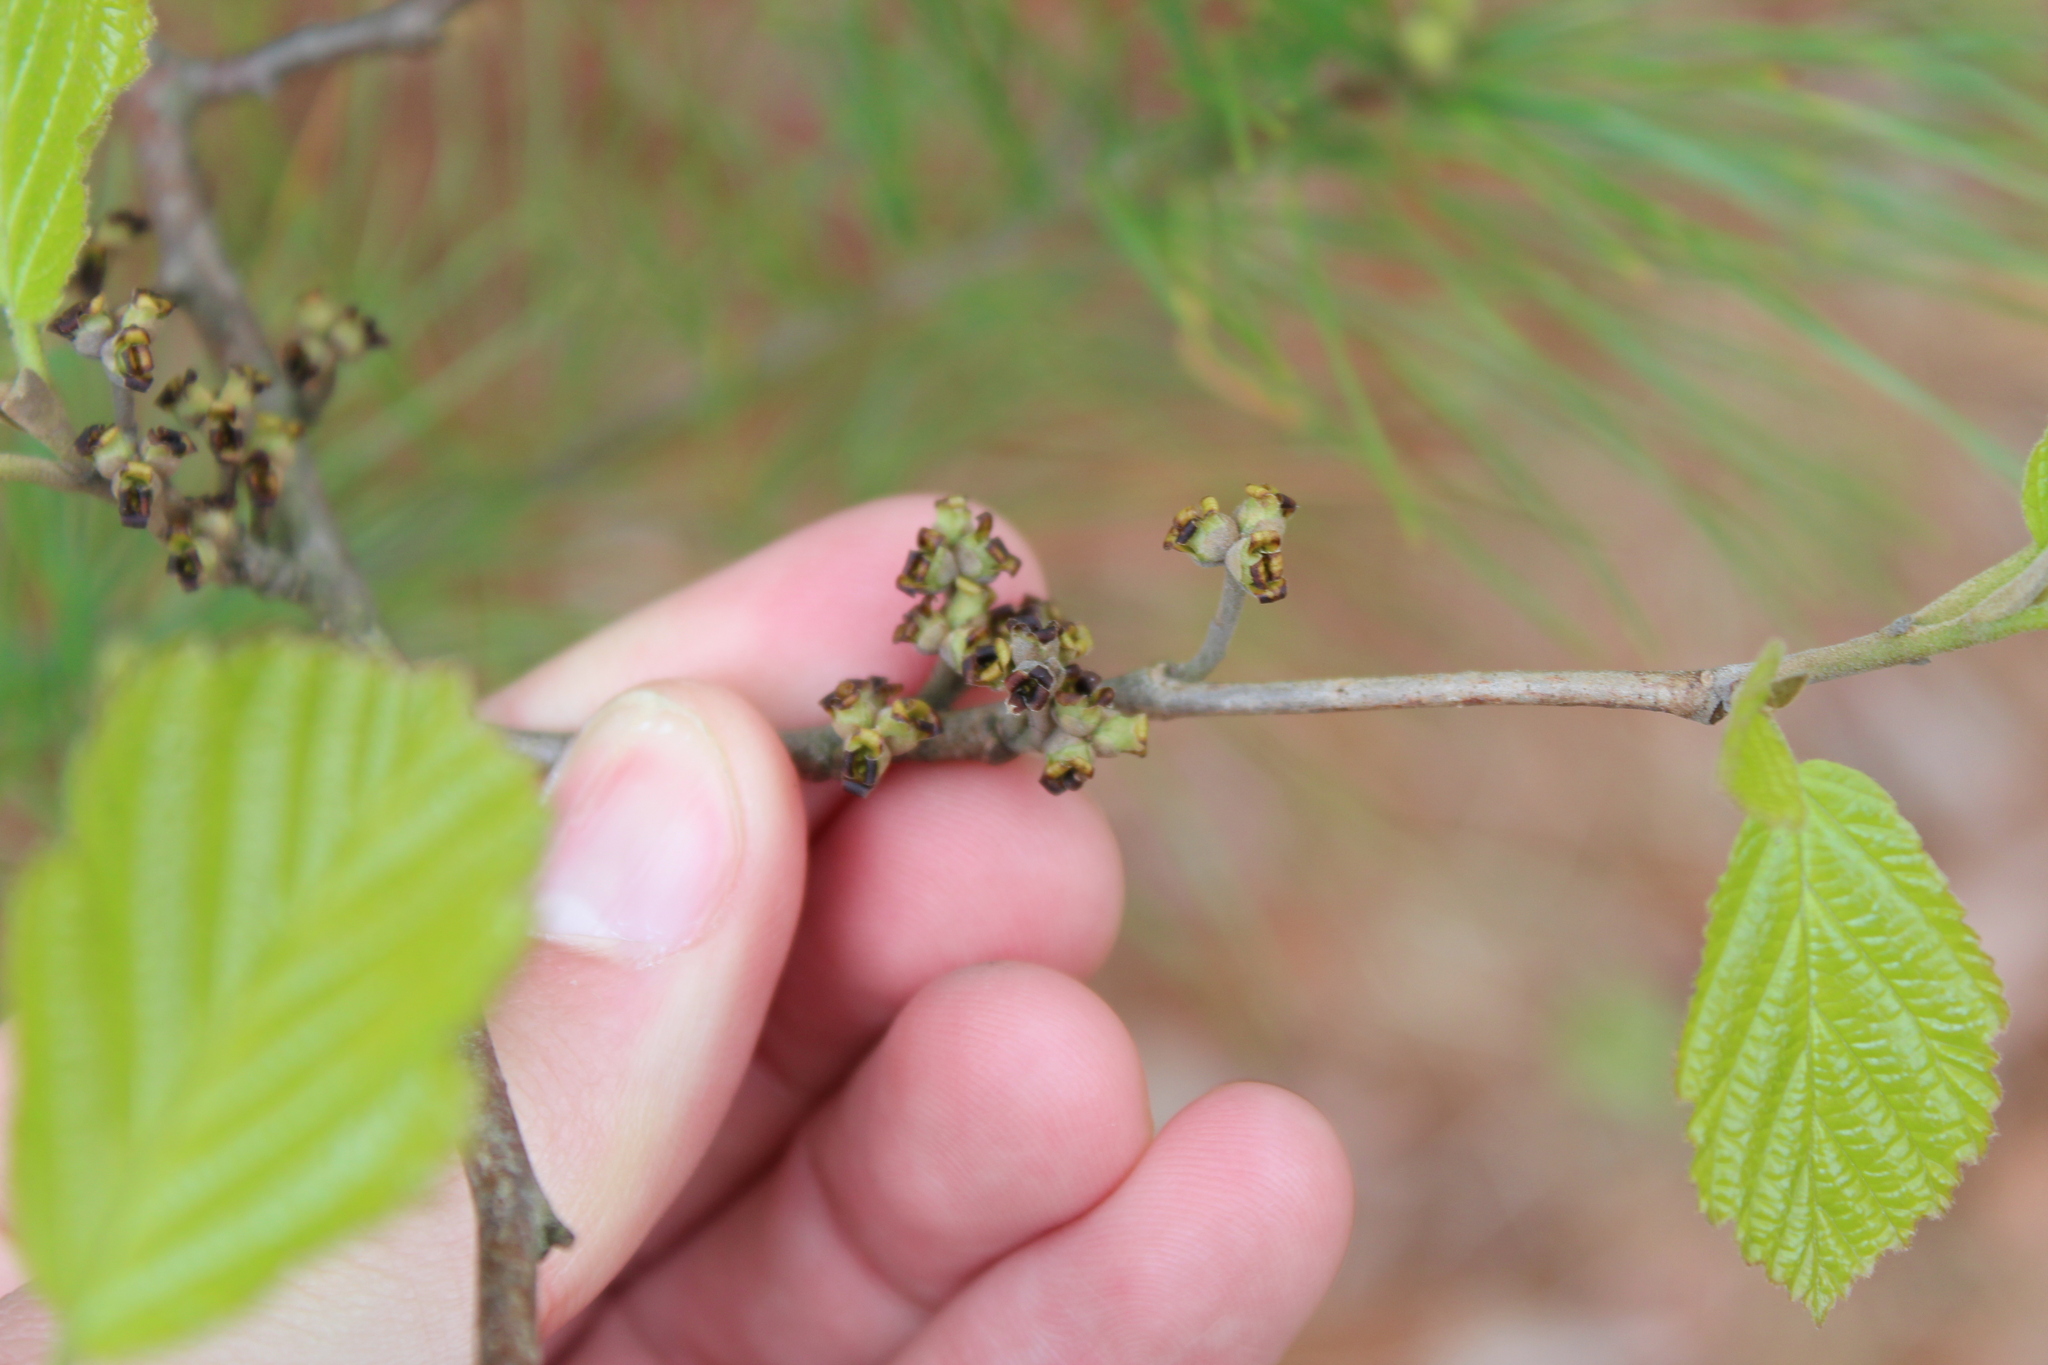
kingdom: Plantae
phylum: Tracheophyta
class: Magnoliopsida
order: Saxifragales
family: Hamamelidaceae
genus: Hamamelis
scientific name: Hamamelis virginiana
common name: Witch-hazel
